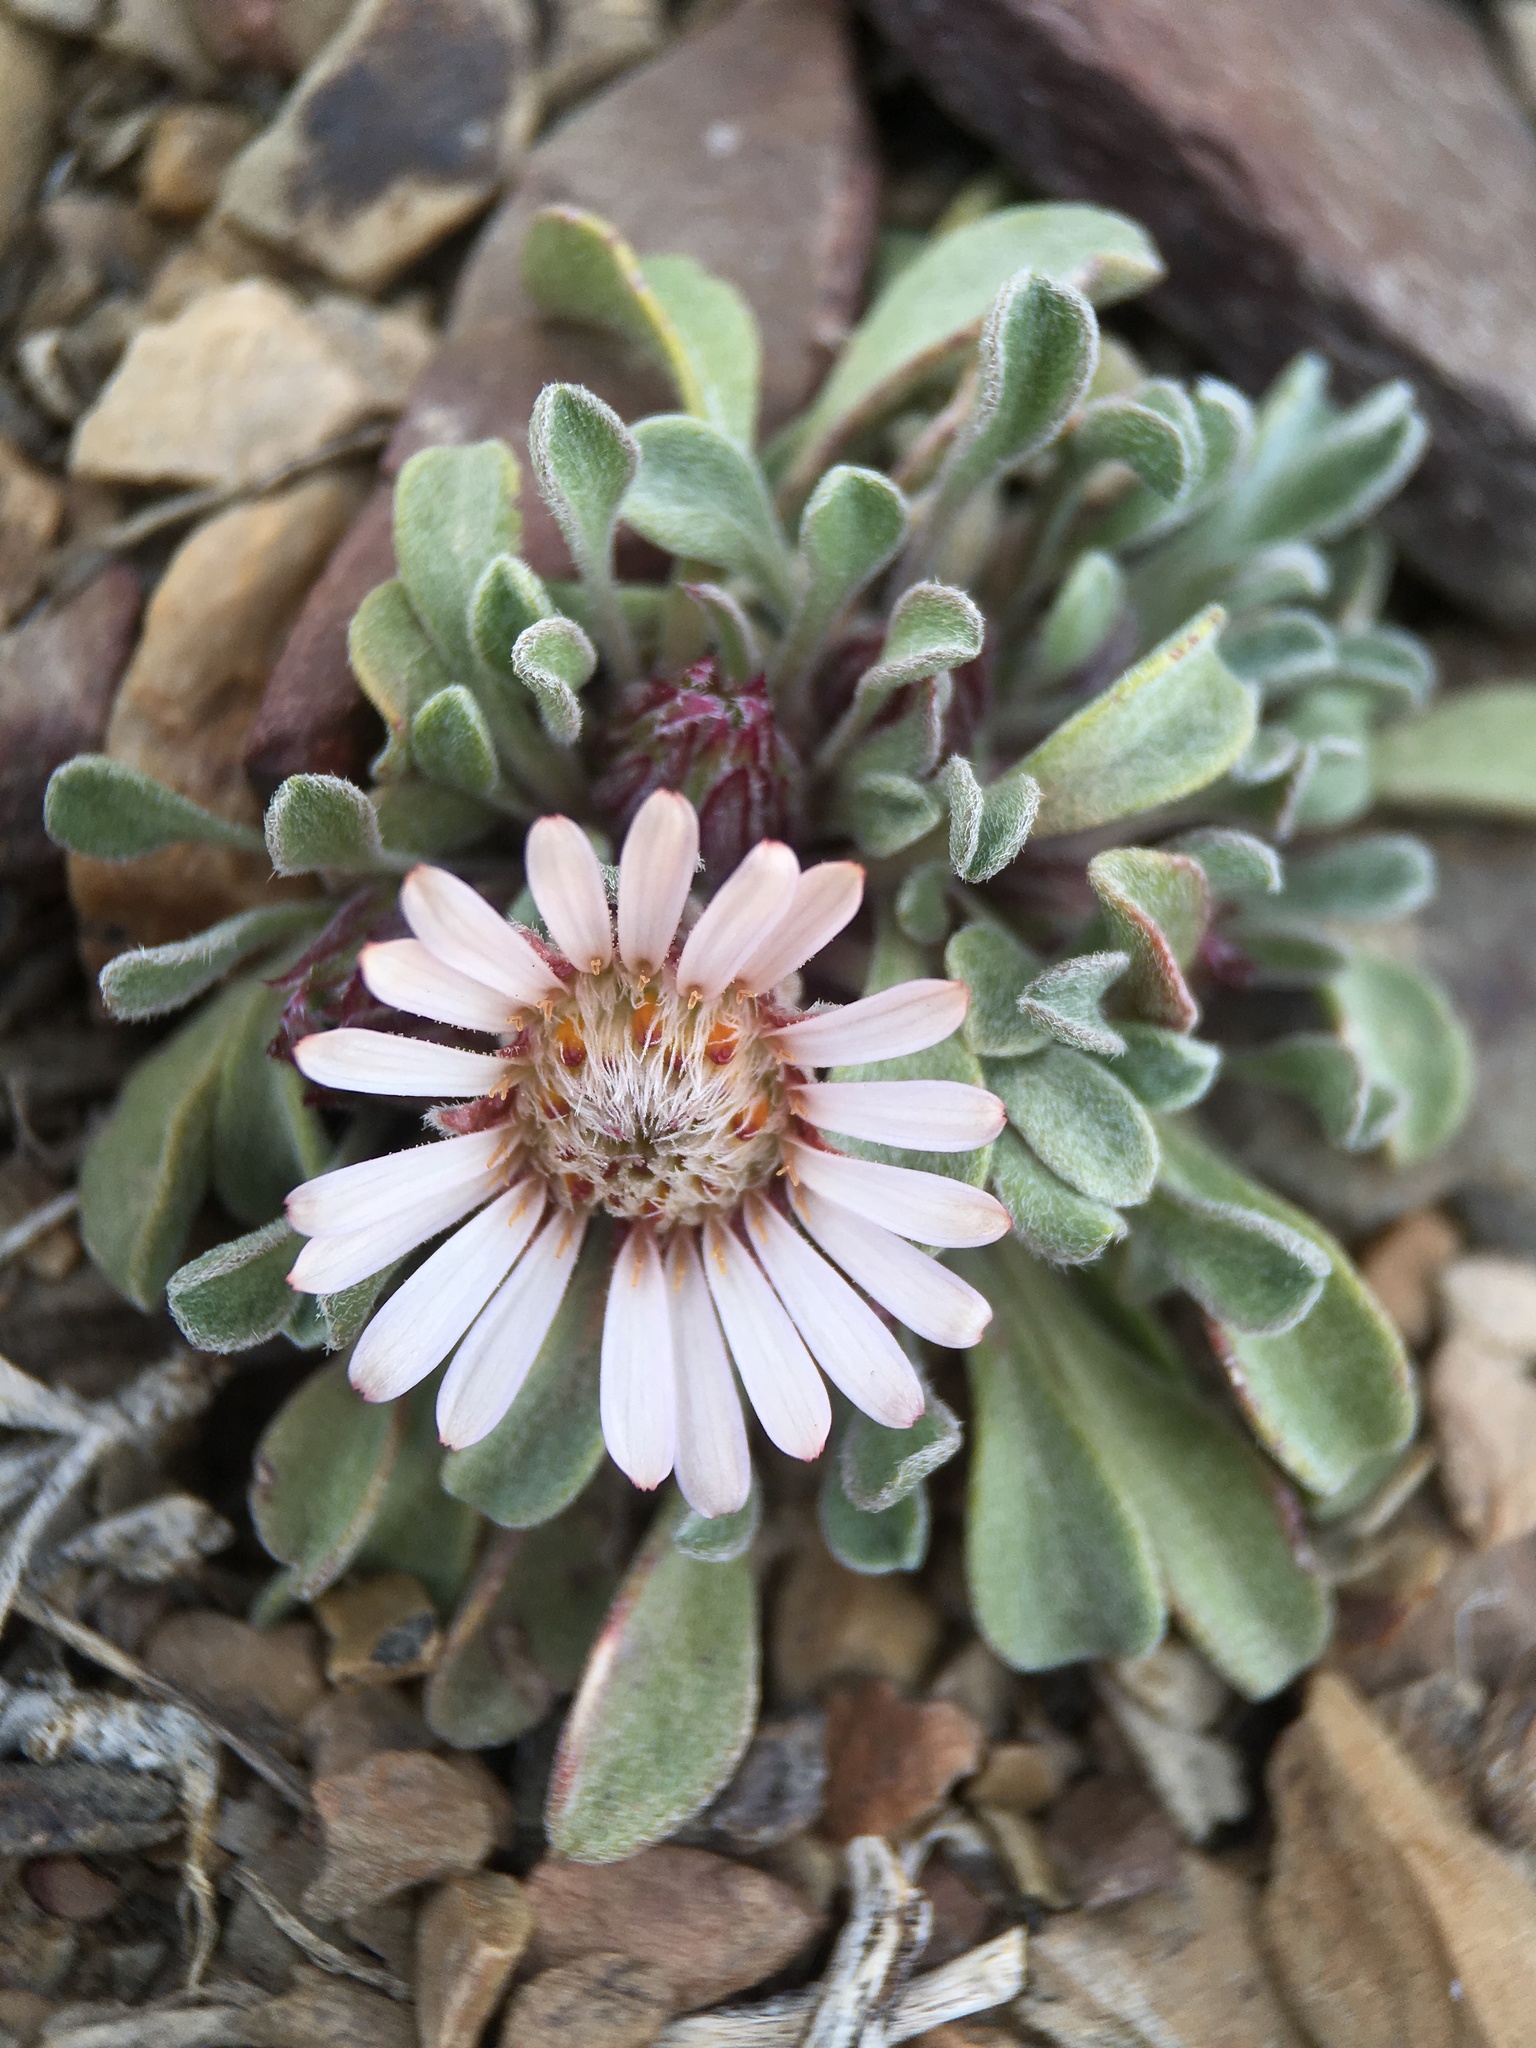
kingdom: Plantae
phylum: Tracheophyta
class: Magnoliopsida
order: Asterales
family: Asteraceae
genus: Townsendia
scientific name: Townsendia scapigera
